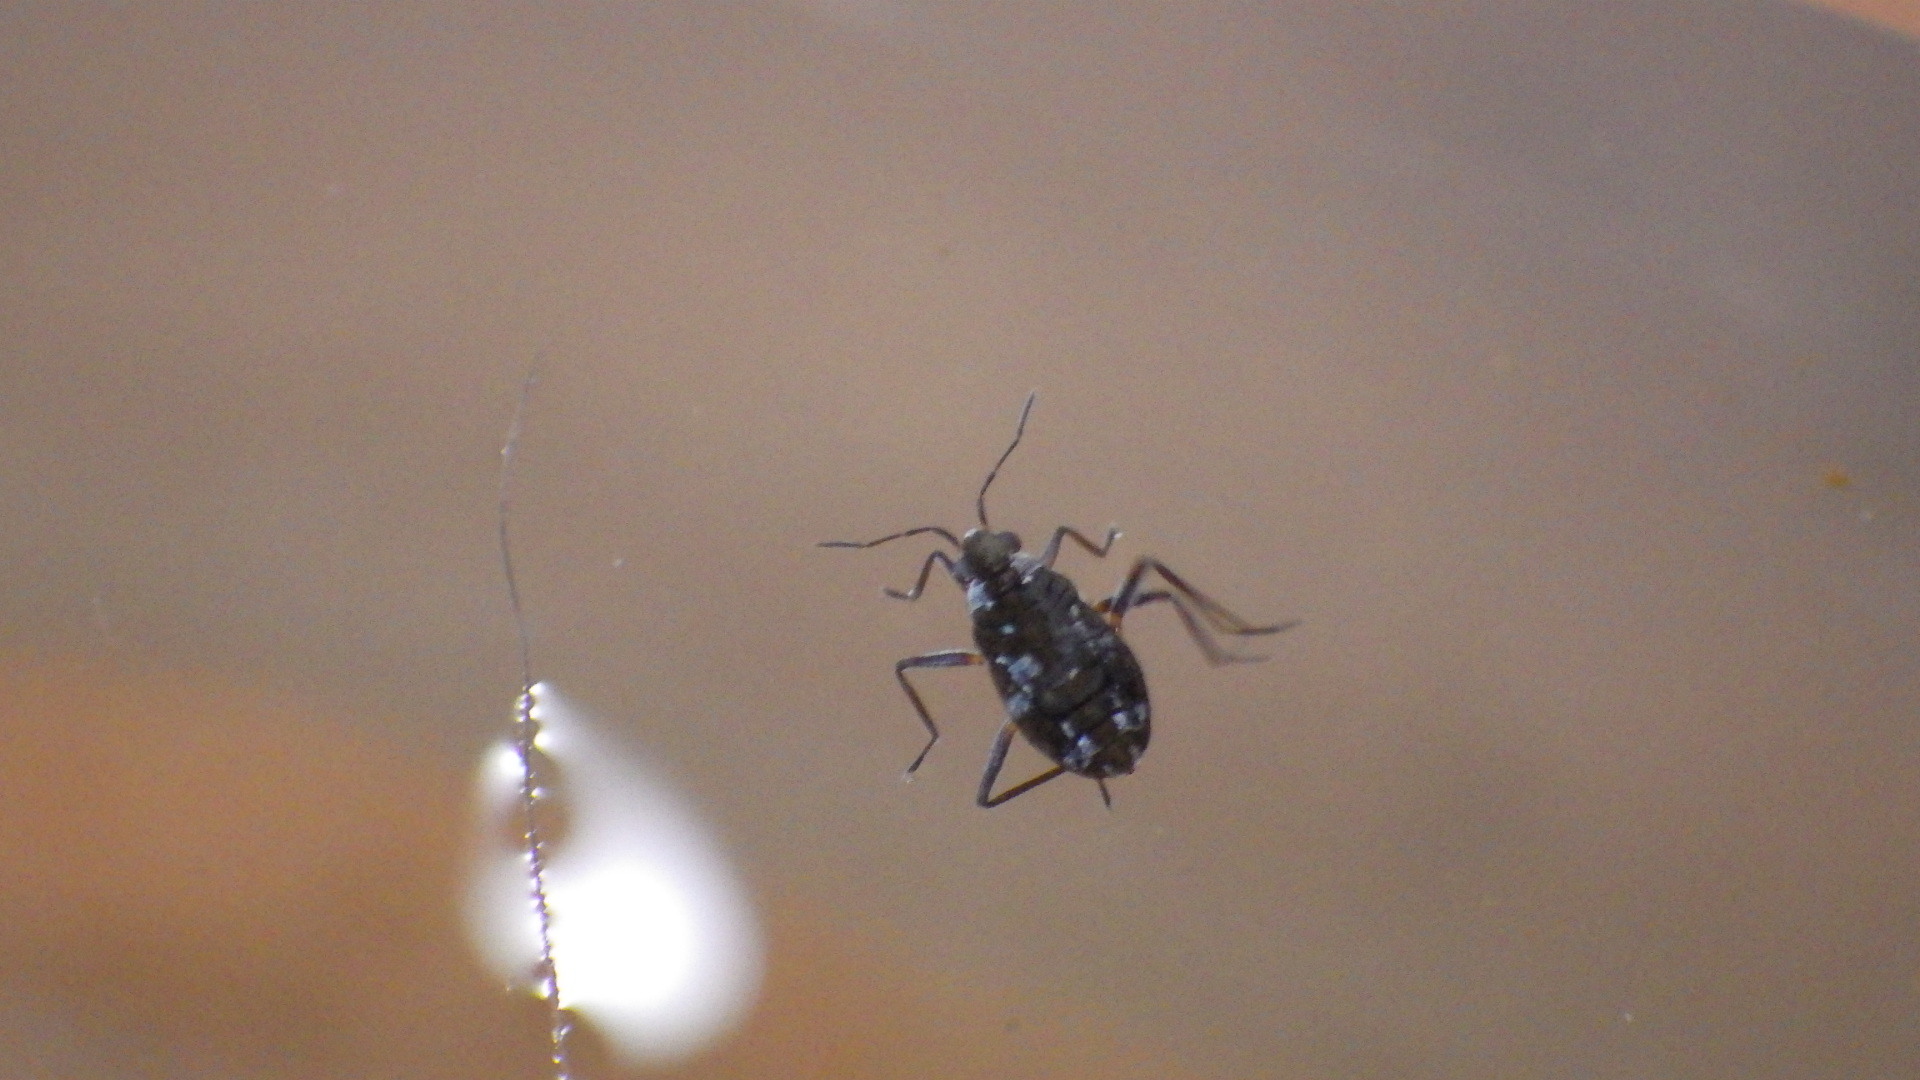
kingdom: Animalia
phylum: Arthropoda
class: Insecta
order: Hemiptera
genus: Kirkaldya
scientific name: Kirkaldya
